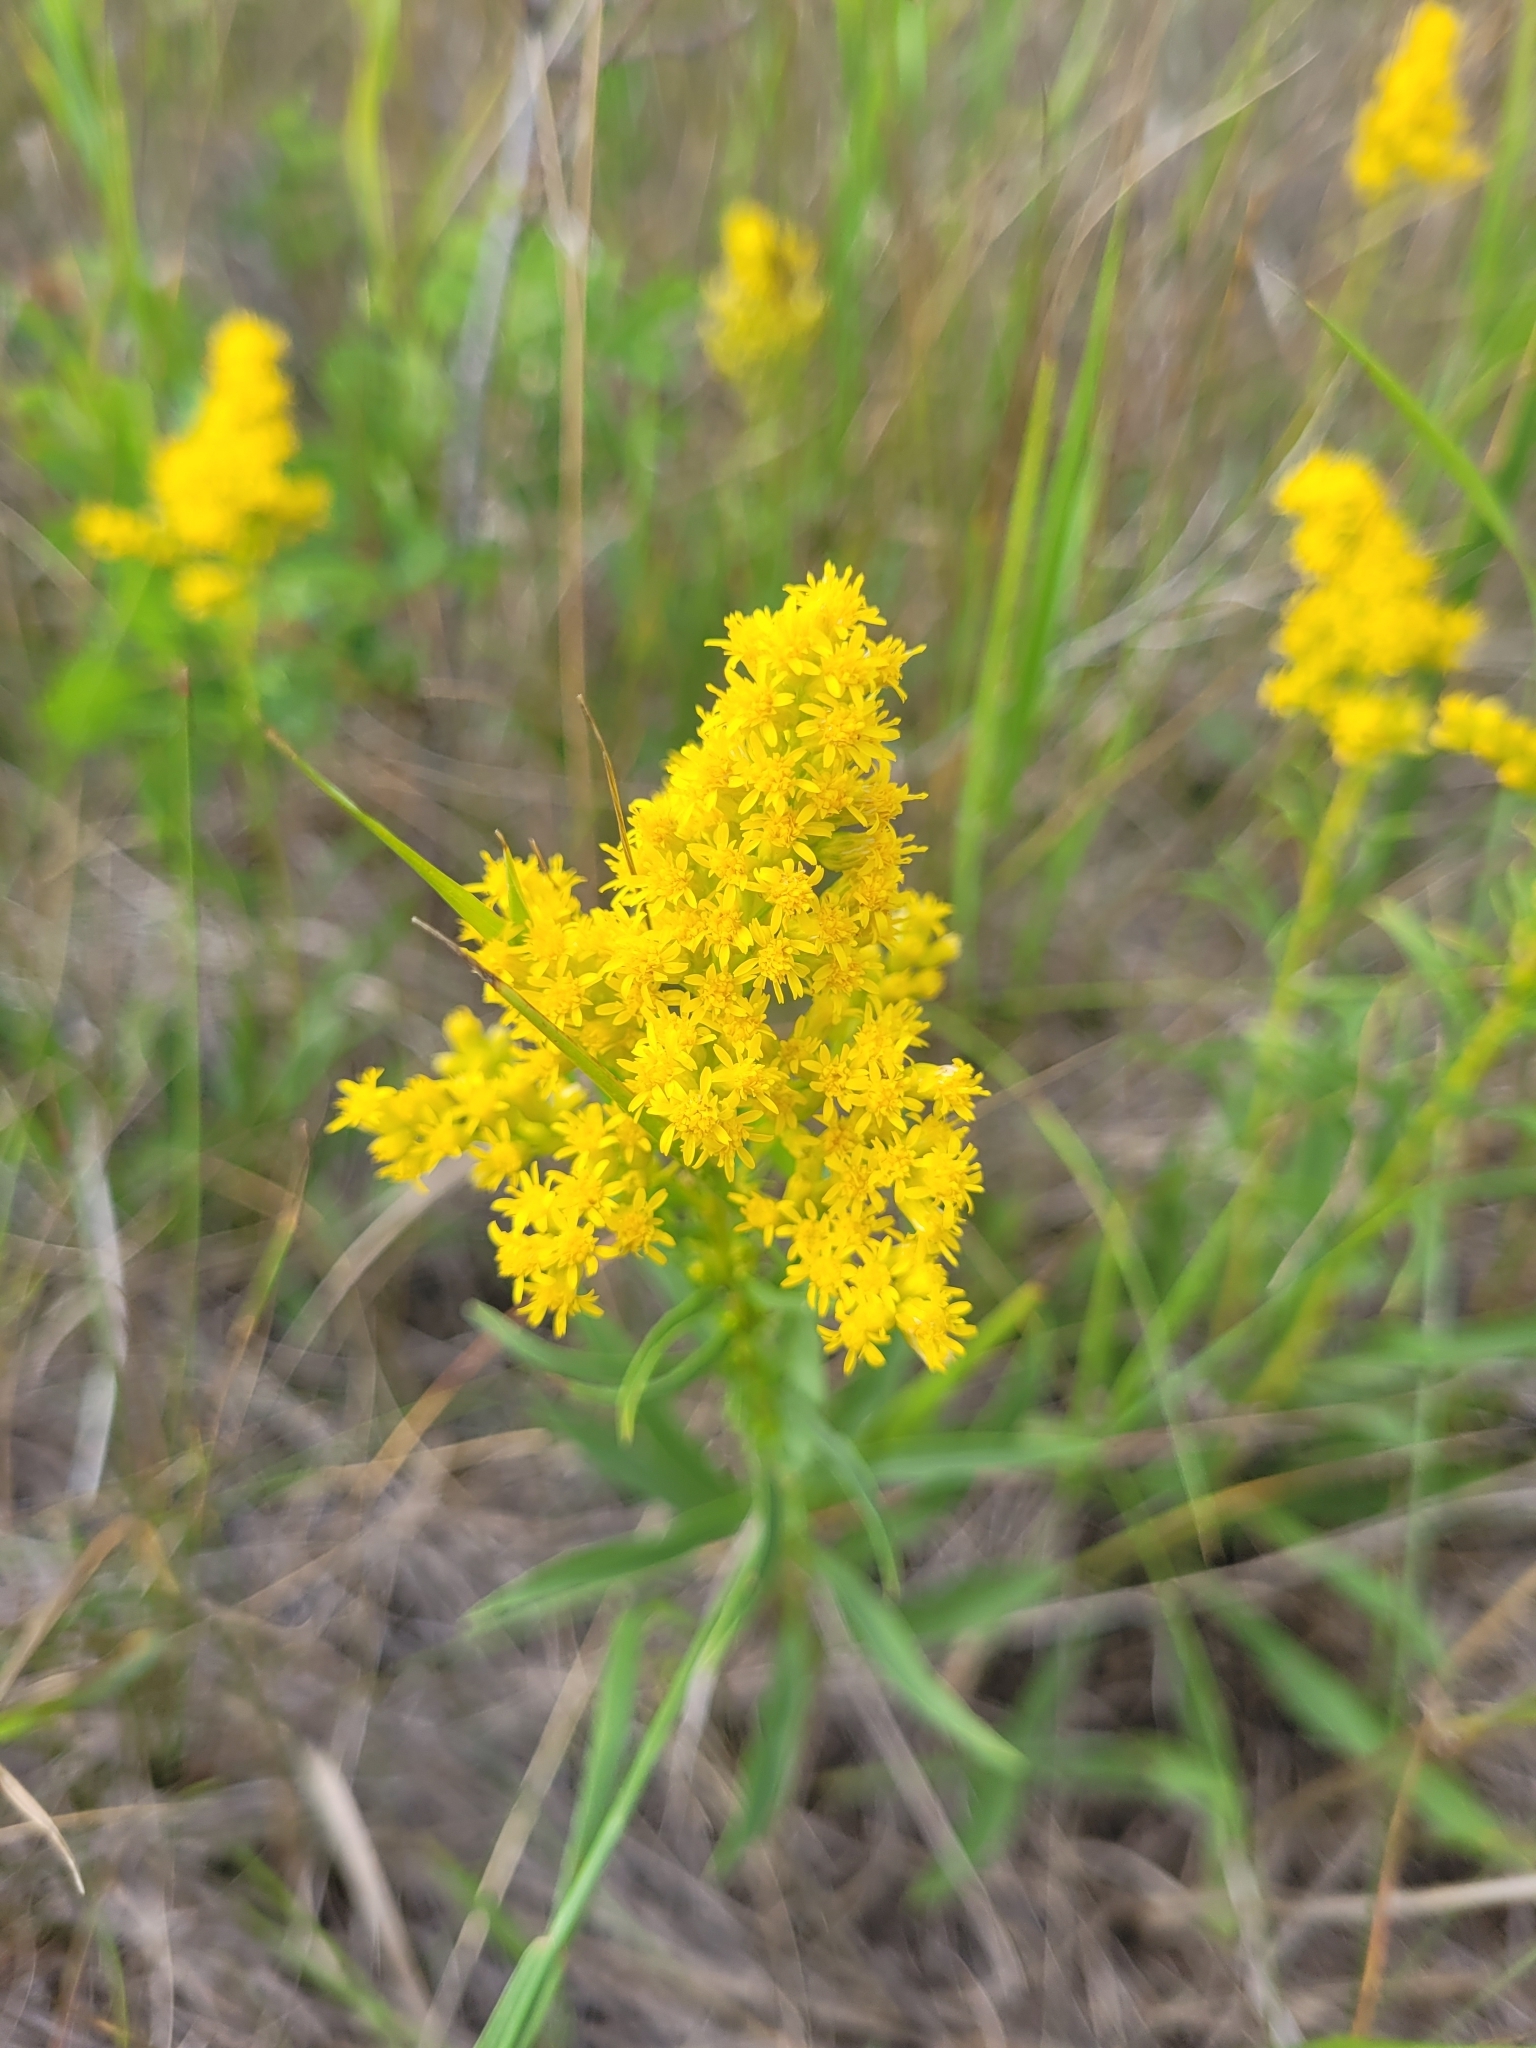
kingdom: Plantae
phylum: Tracheophyta
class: Magnoliopsida
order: Asterales
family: Asteraceae
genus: Solidago
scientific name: Solidago missouriensis
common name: Prairie goldenrod
